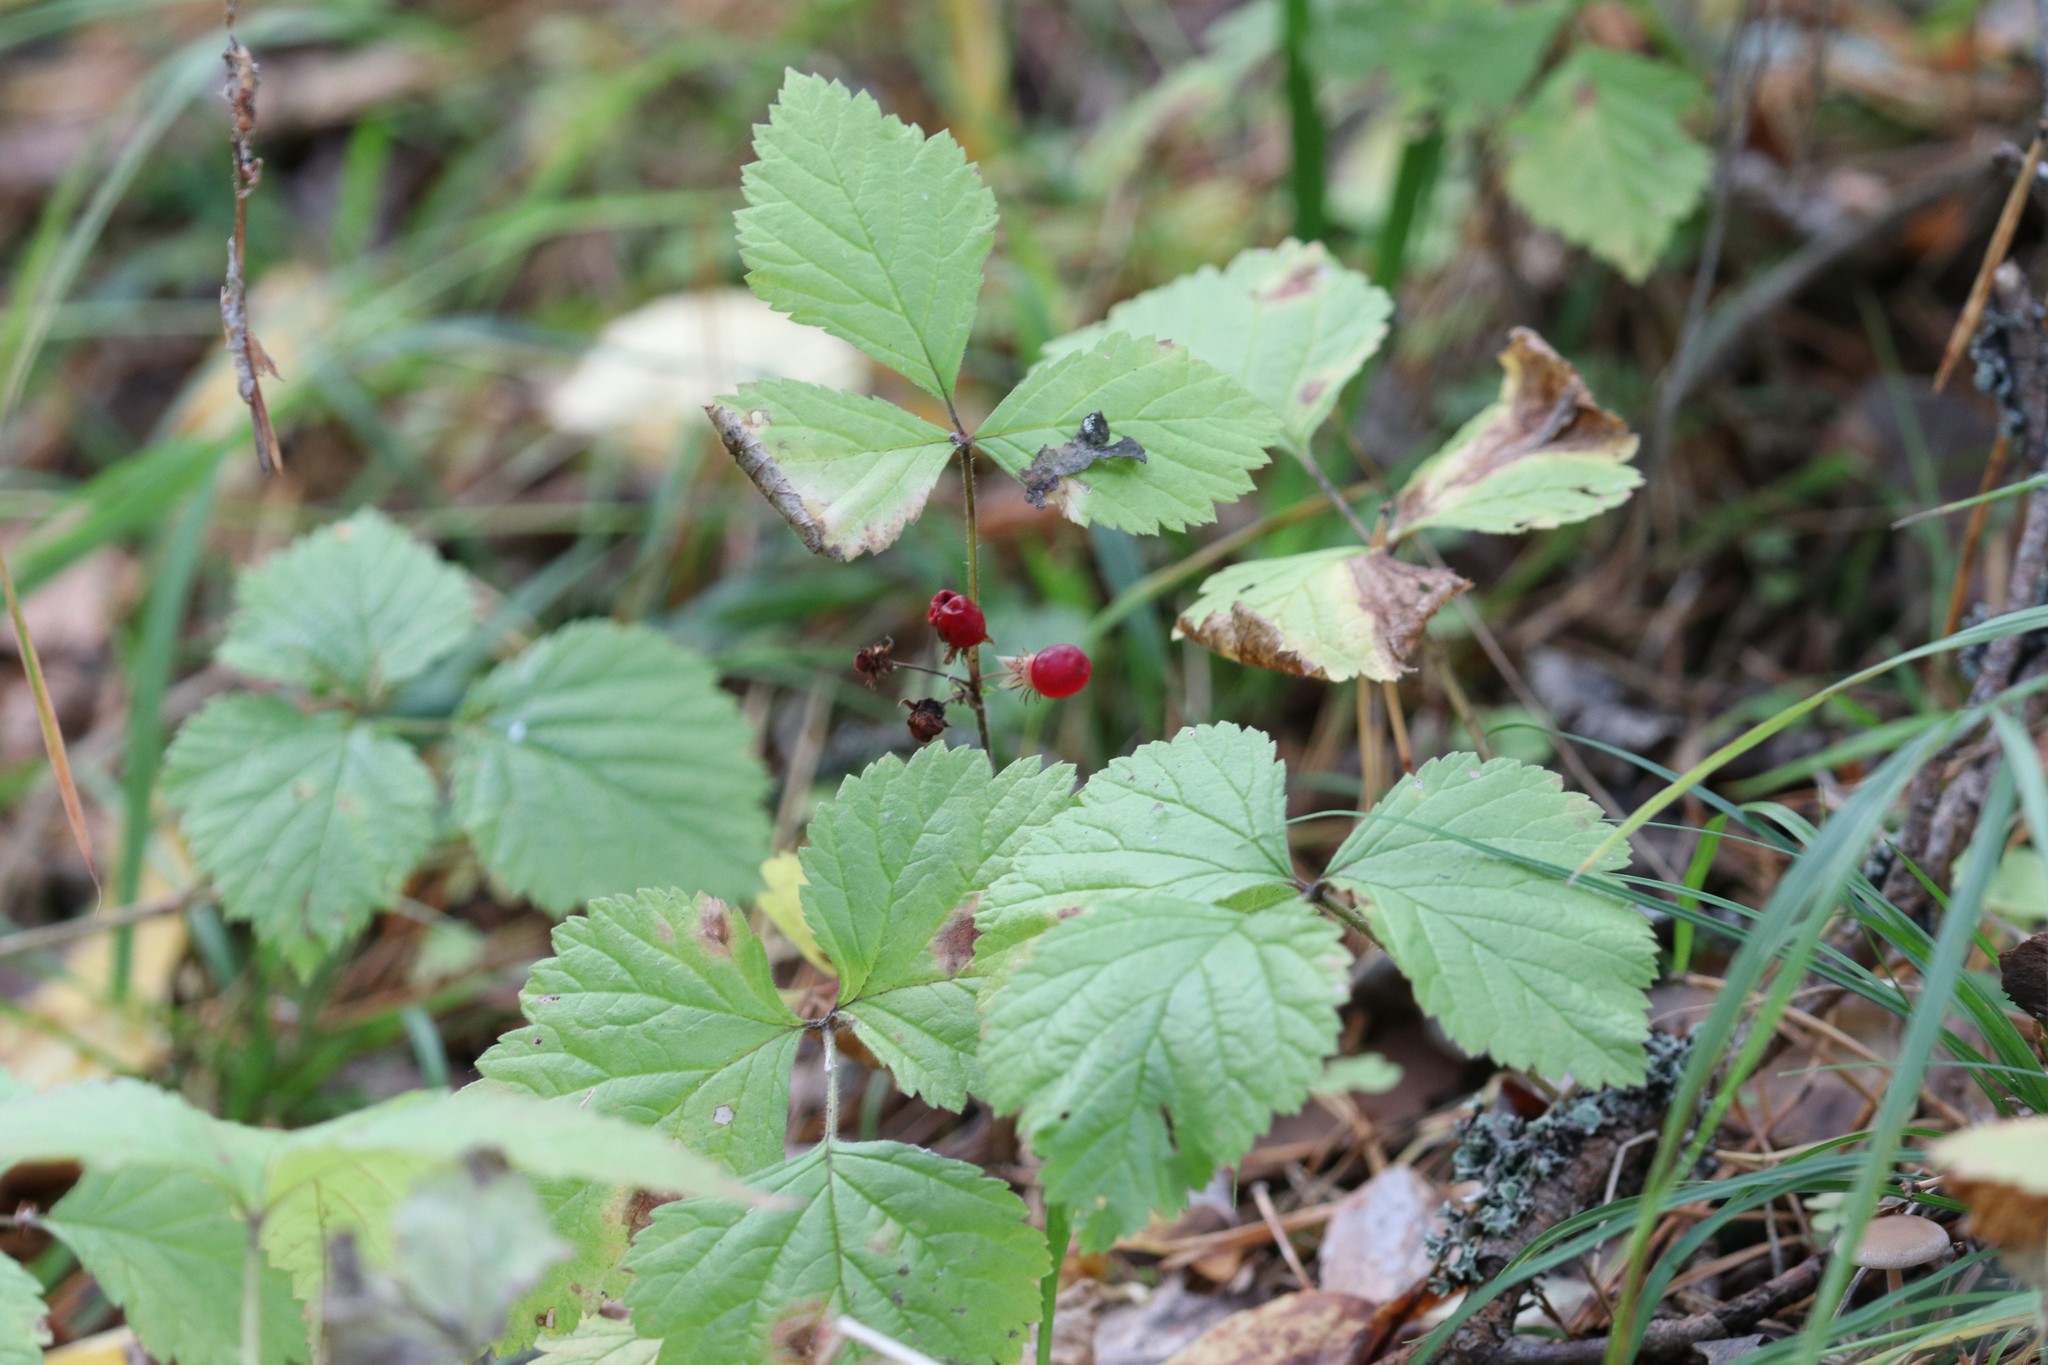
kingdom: Plantae
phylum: Tracheophyta
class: Magnoliopsida
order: Rosales
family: Rosaceae
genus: Rubus
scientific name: Rubus saxatilis
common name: Stone bramble
